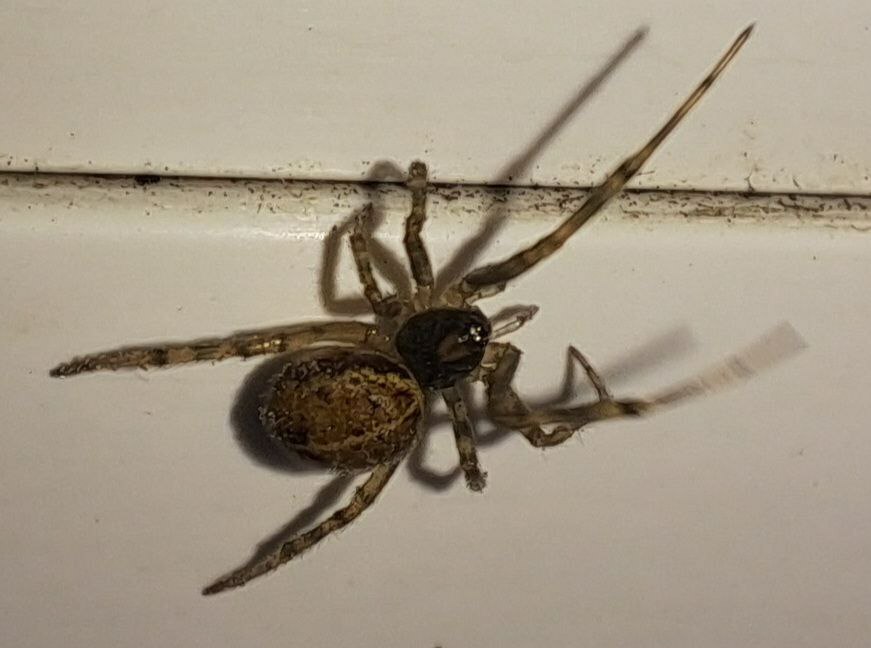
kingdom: Animalia
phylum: Arthropoda
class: Arachnida
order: Araneae
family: Theridiidae
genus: Steatoda
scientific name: Steatoda castanea
